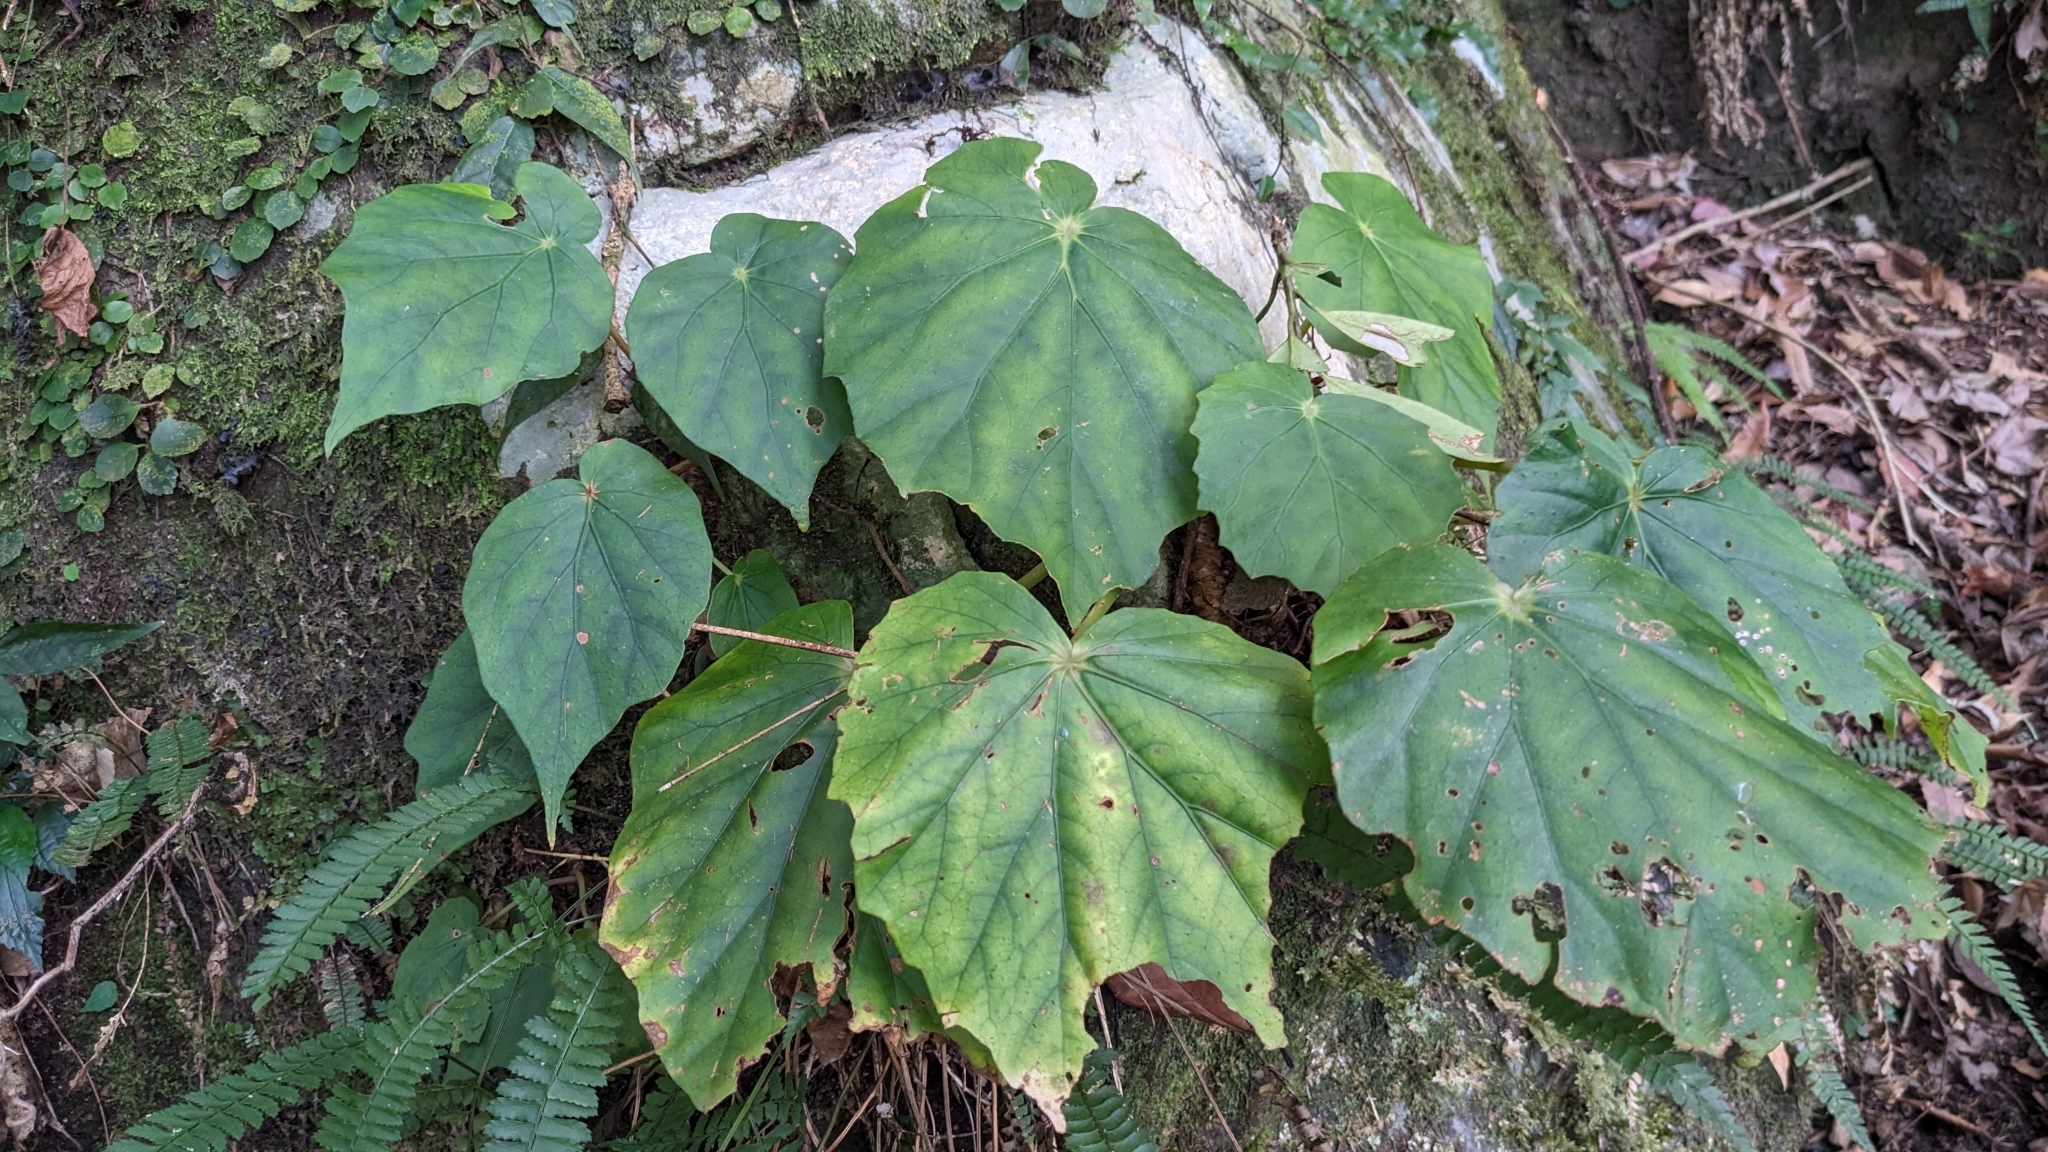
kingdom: Plantae
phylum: Tracheophyta
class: Magnoliopsida
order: Cucurbitales
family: Begoniaceae
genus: Begonia
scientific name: Begonia chitoensis
